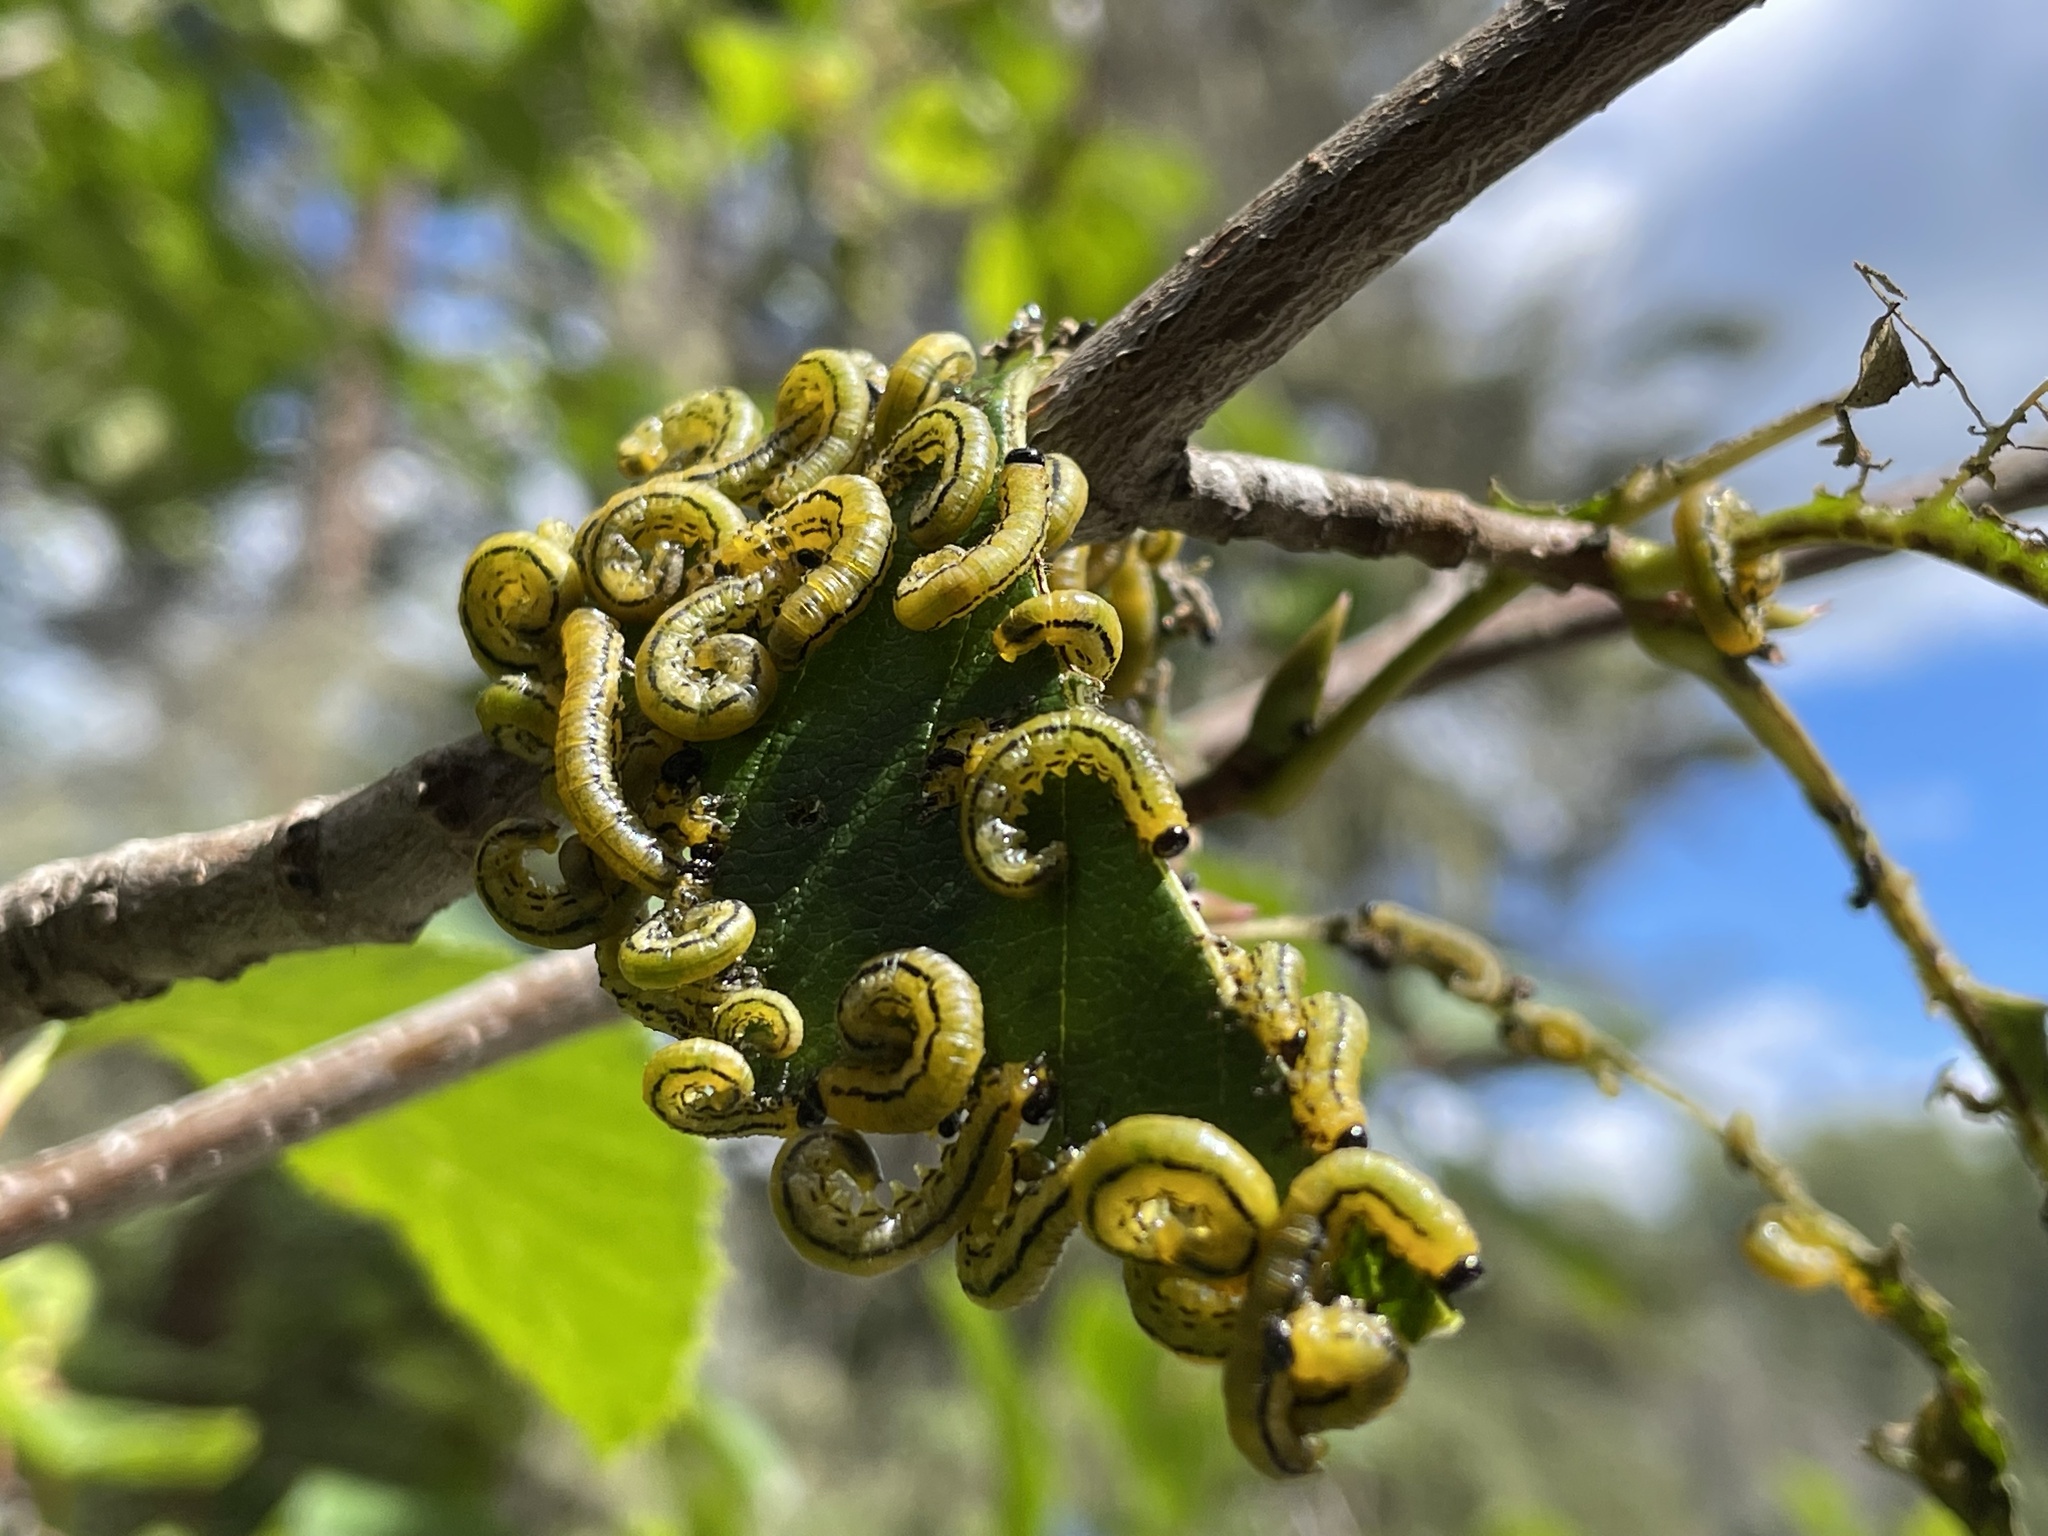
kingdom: Animalia
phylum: Arthropoda
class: Insecta
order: Hymenoptera
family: Tenthredinidae
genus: Hemichroa
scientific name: Hemichroa crocea
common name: Striped alder sawfly
